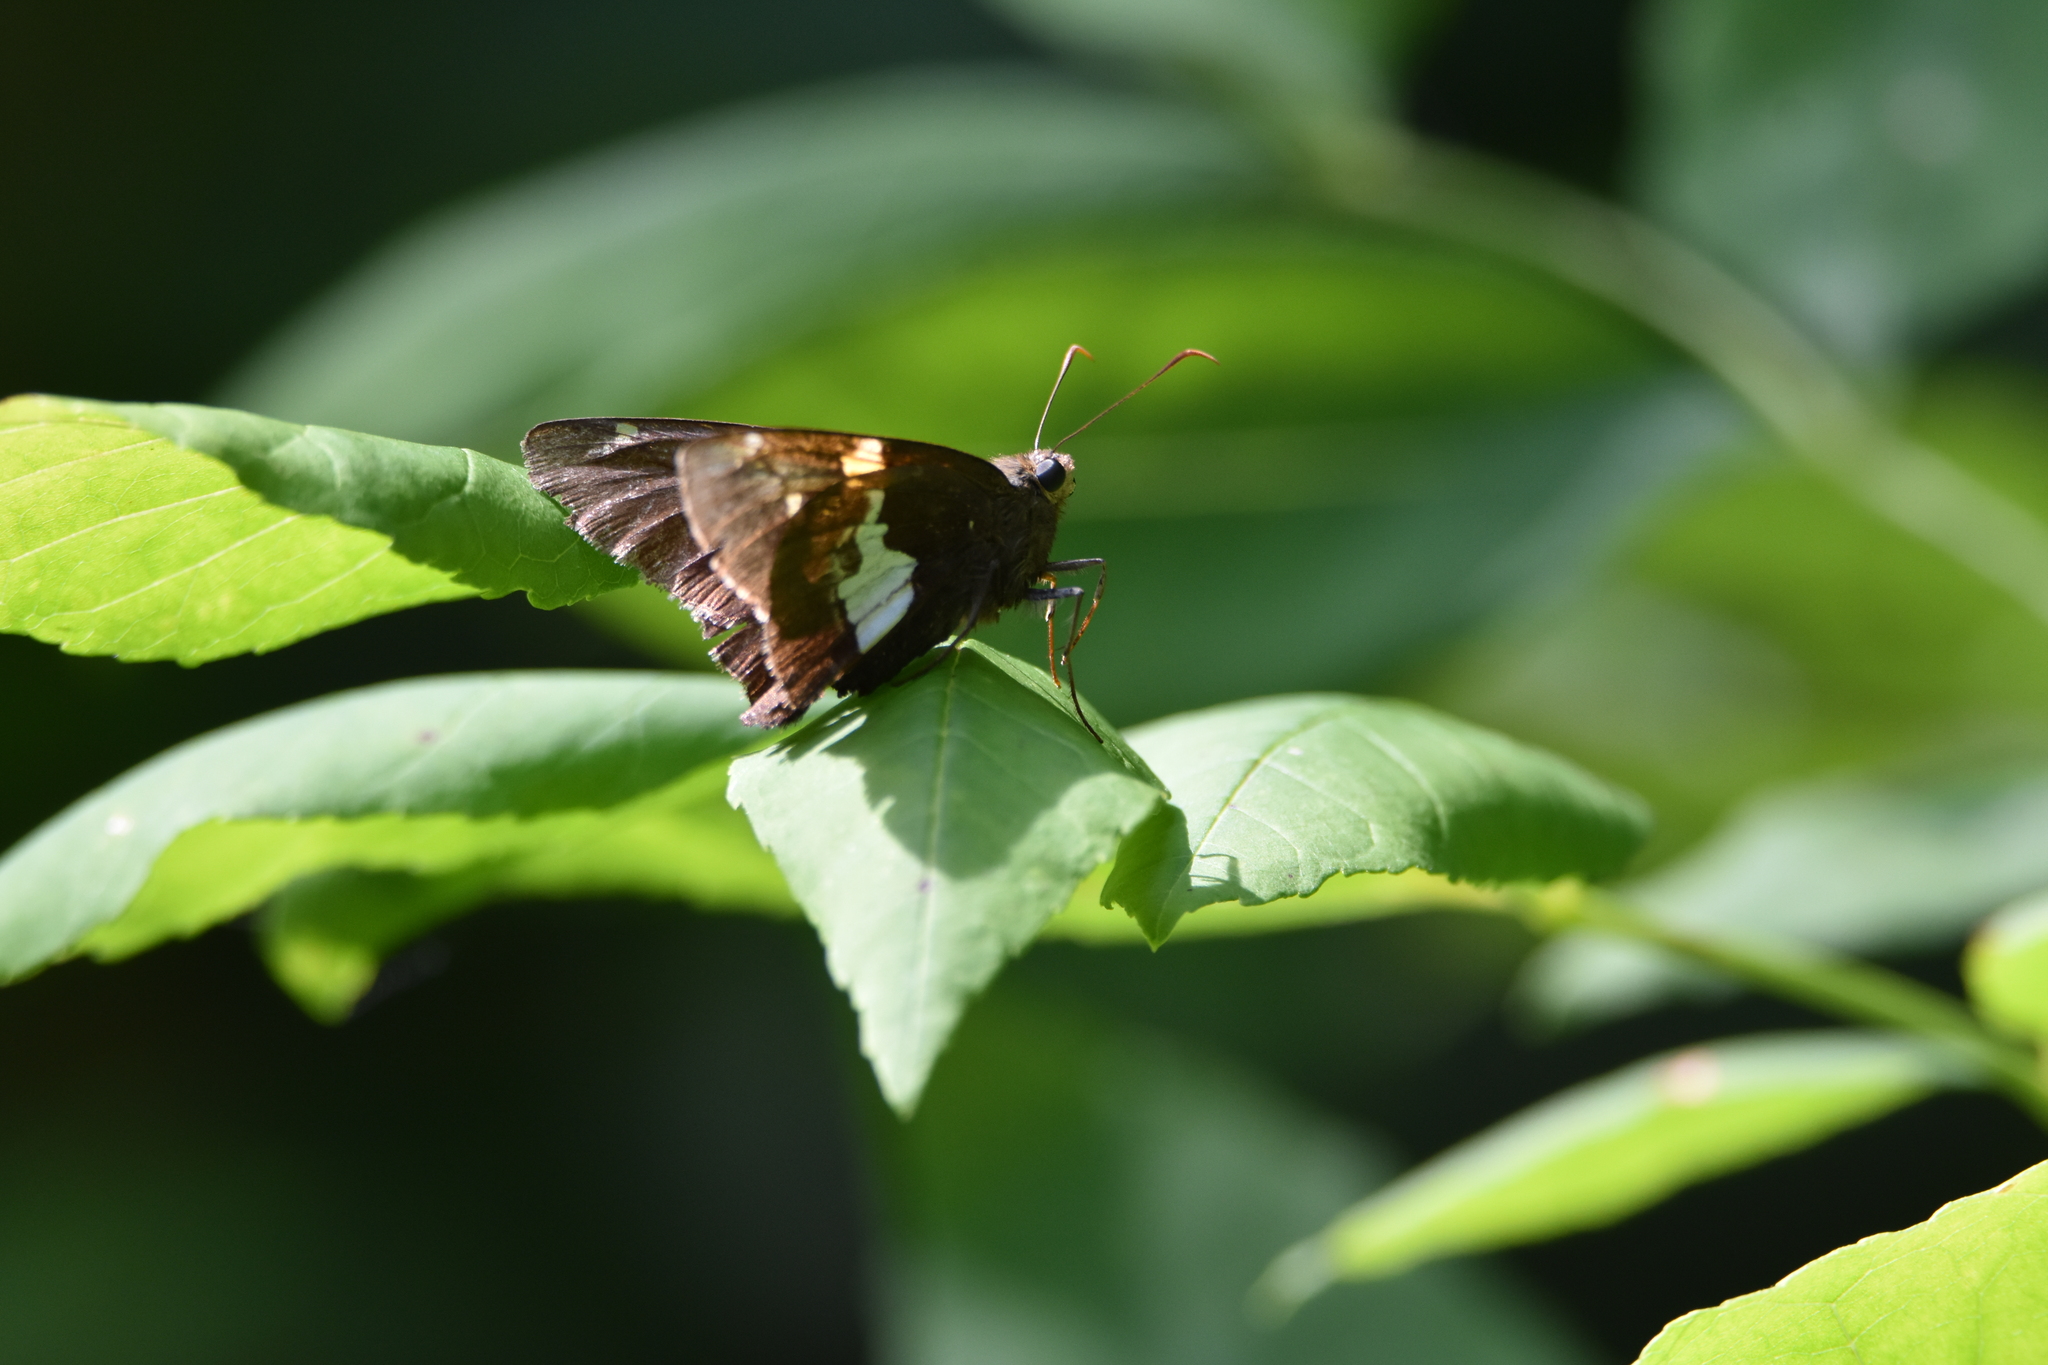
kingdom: Animalia
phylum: Arthropoda
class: Insecta
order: Lepidoptera
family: Hesperiidae
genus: Epargyreus
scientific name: Epargyreus clarus
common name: Silver-spotted skipper
